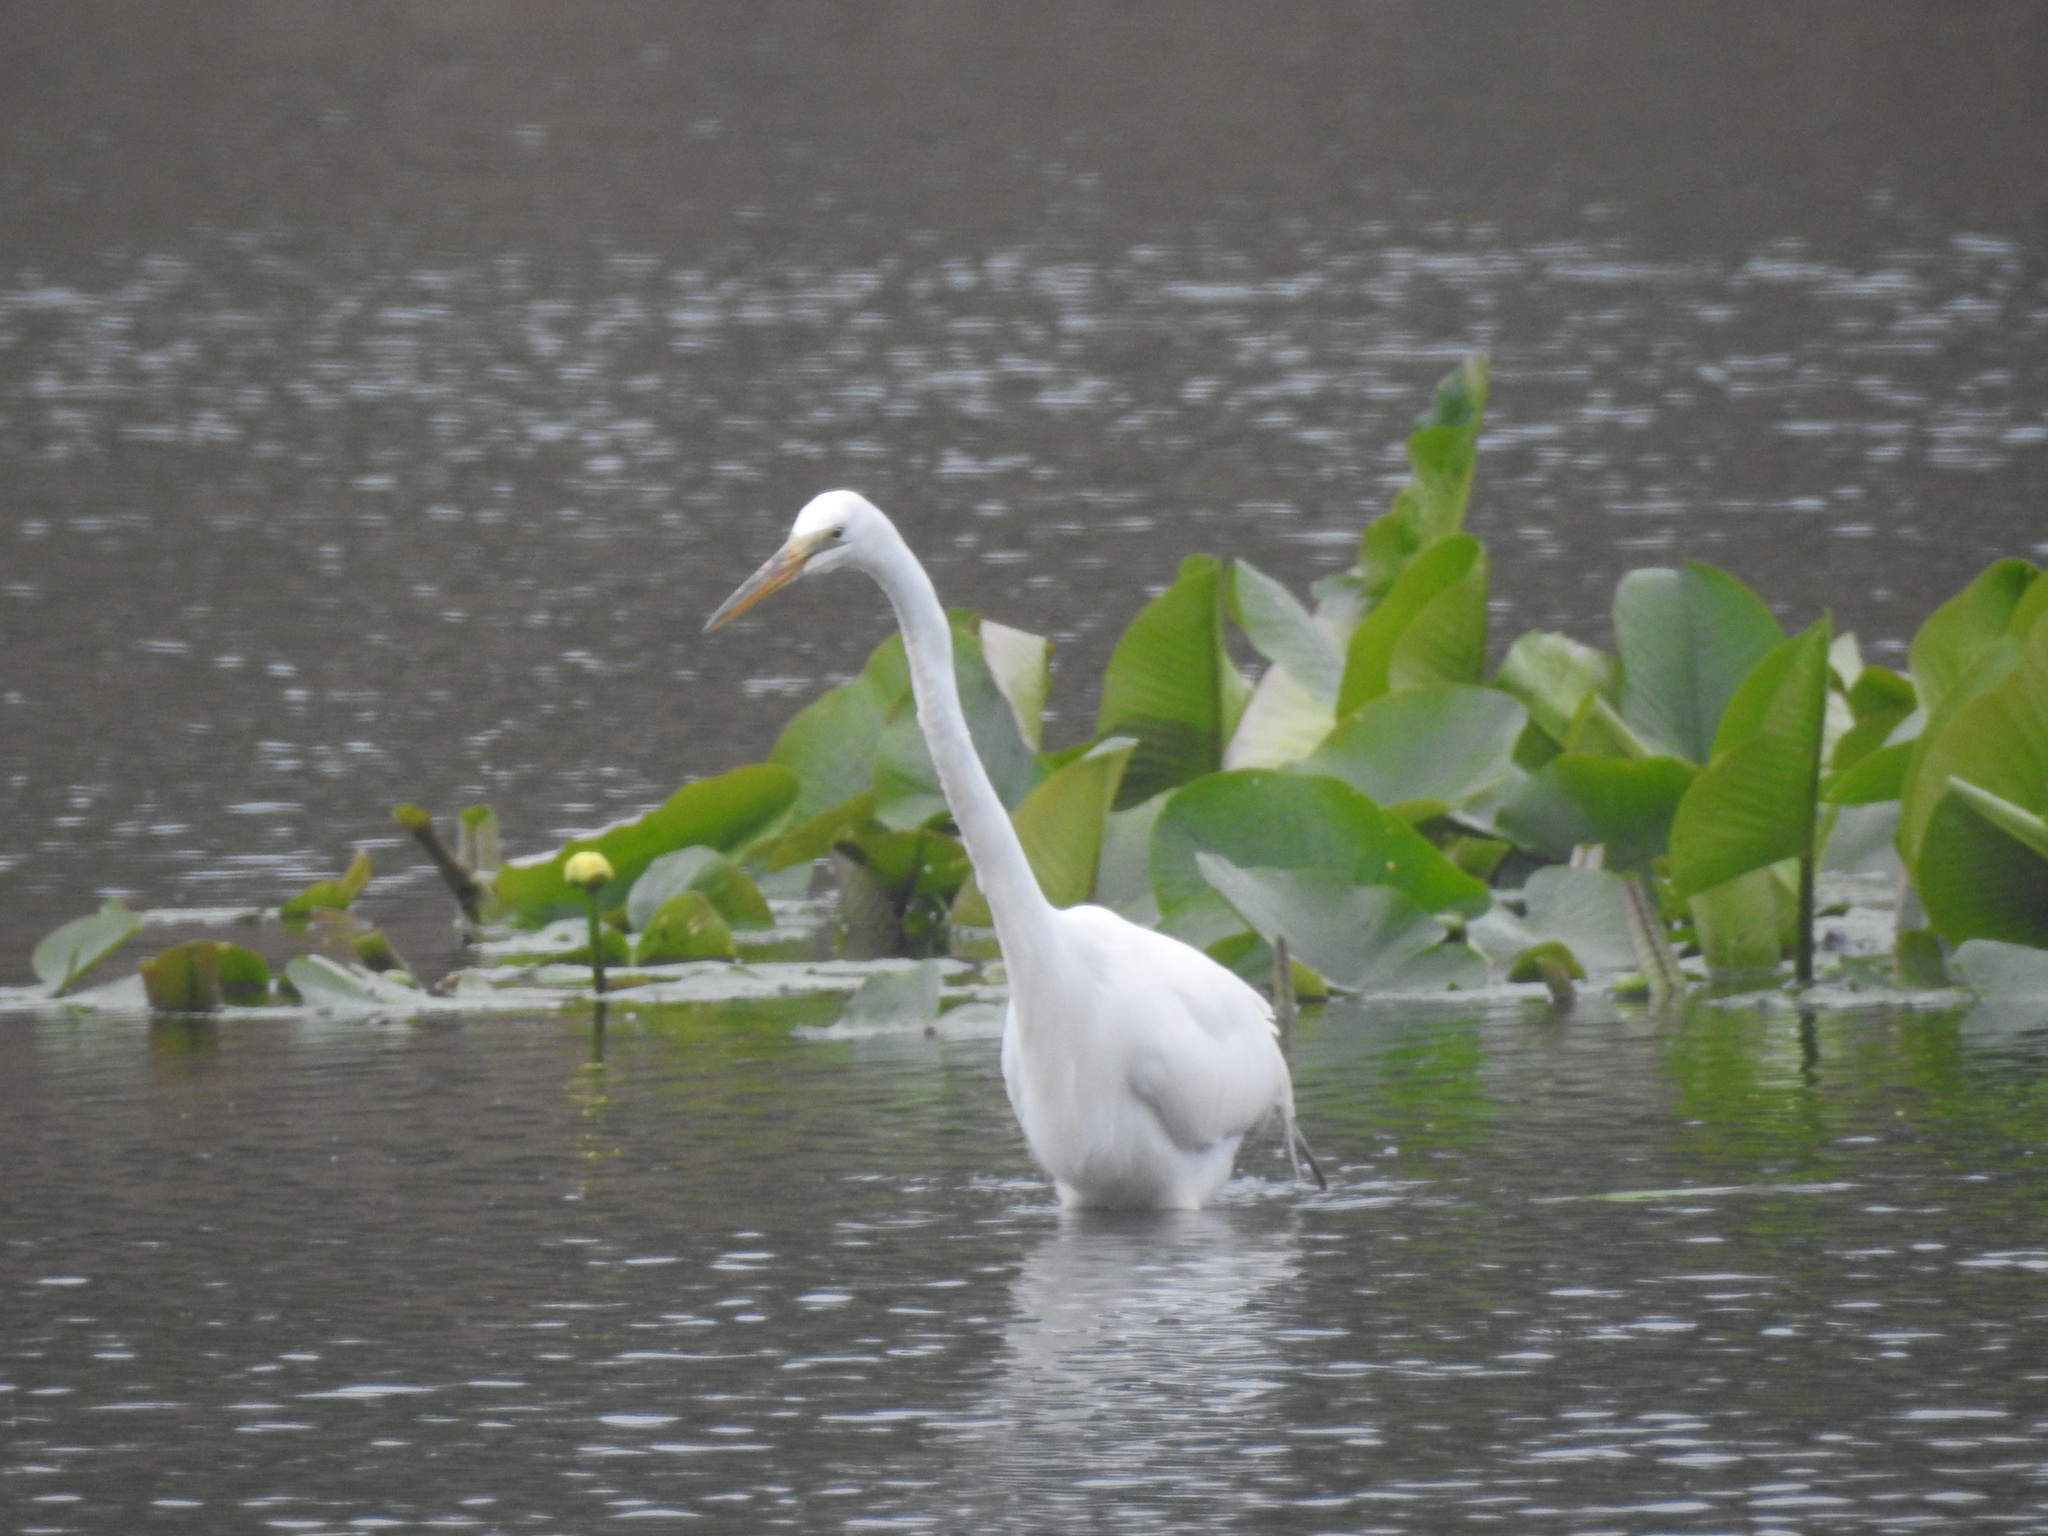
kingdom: Animalia
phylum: Chordata
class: Aves
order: Pelecaniformes
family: Ardeidae
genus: Ardea
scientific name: Ardea alba
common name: Great egret
